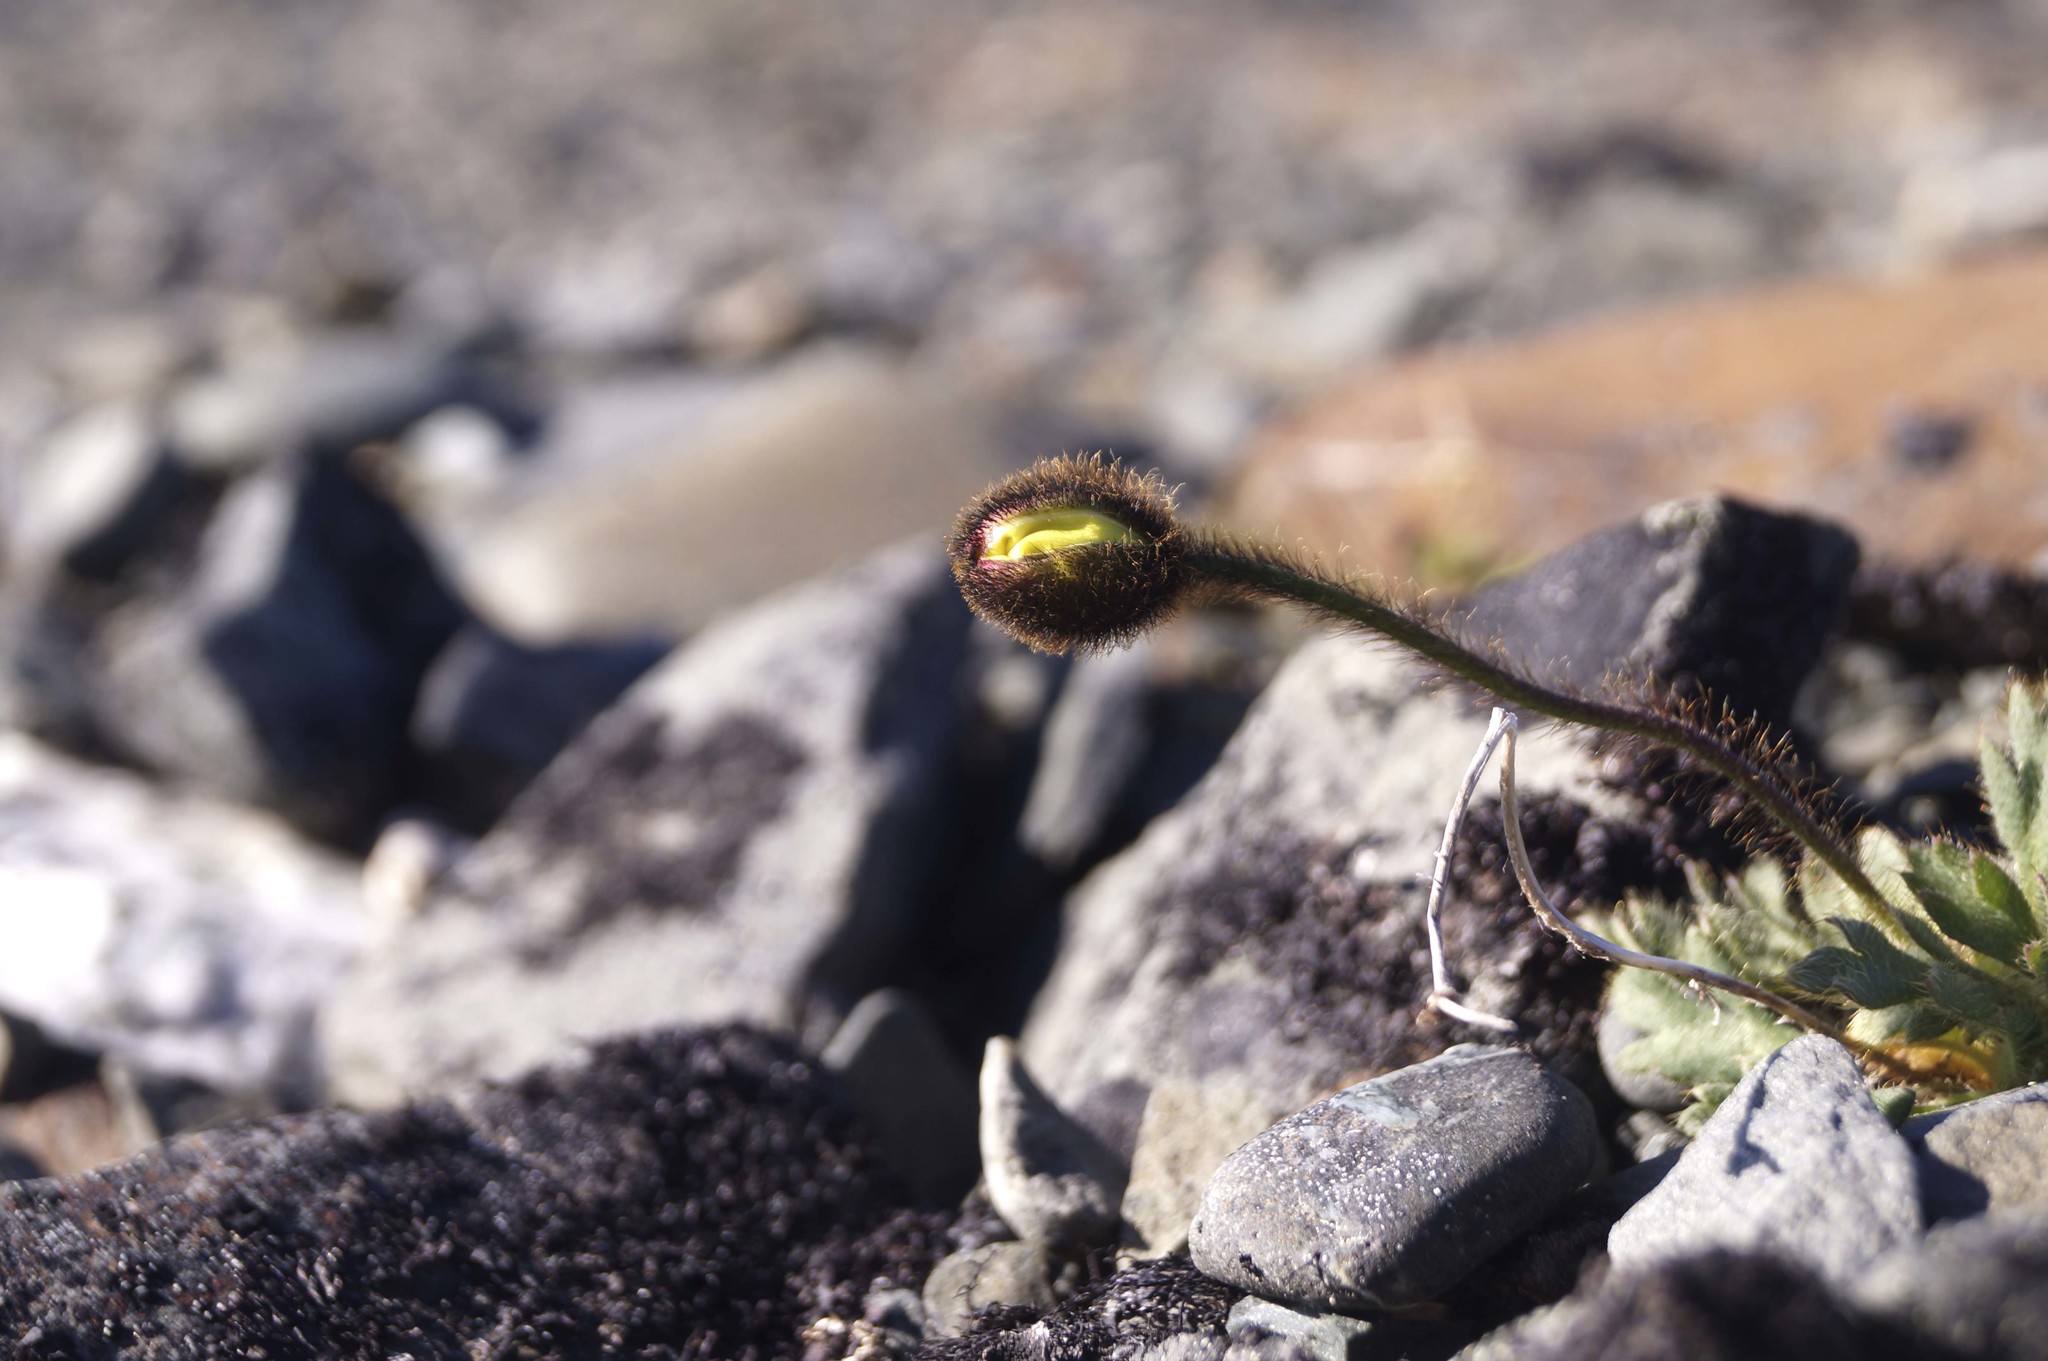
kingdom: Plantae
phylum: Tracheophyta
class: Magnoliopsida
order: Ranunculales
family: Papaveraceae
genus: Papaver
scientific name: Papaver radicatum
